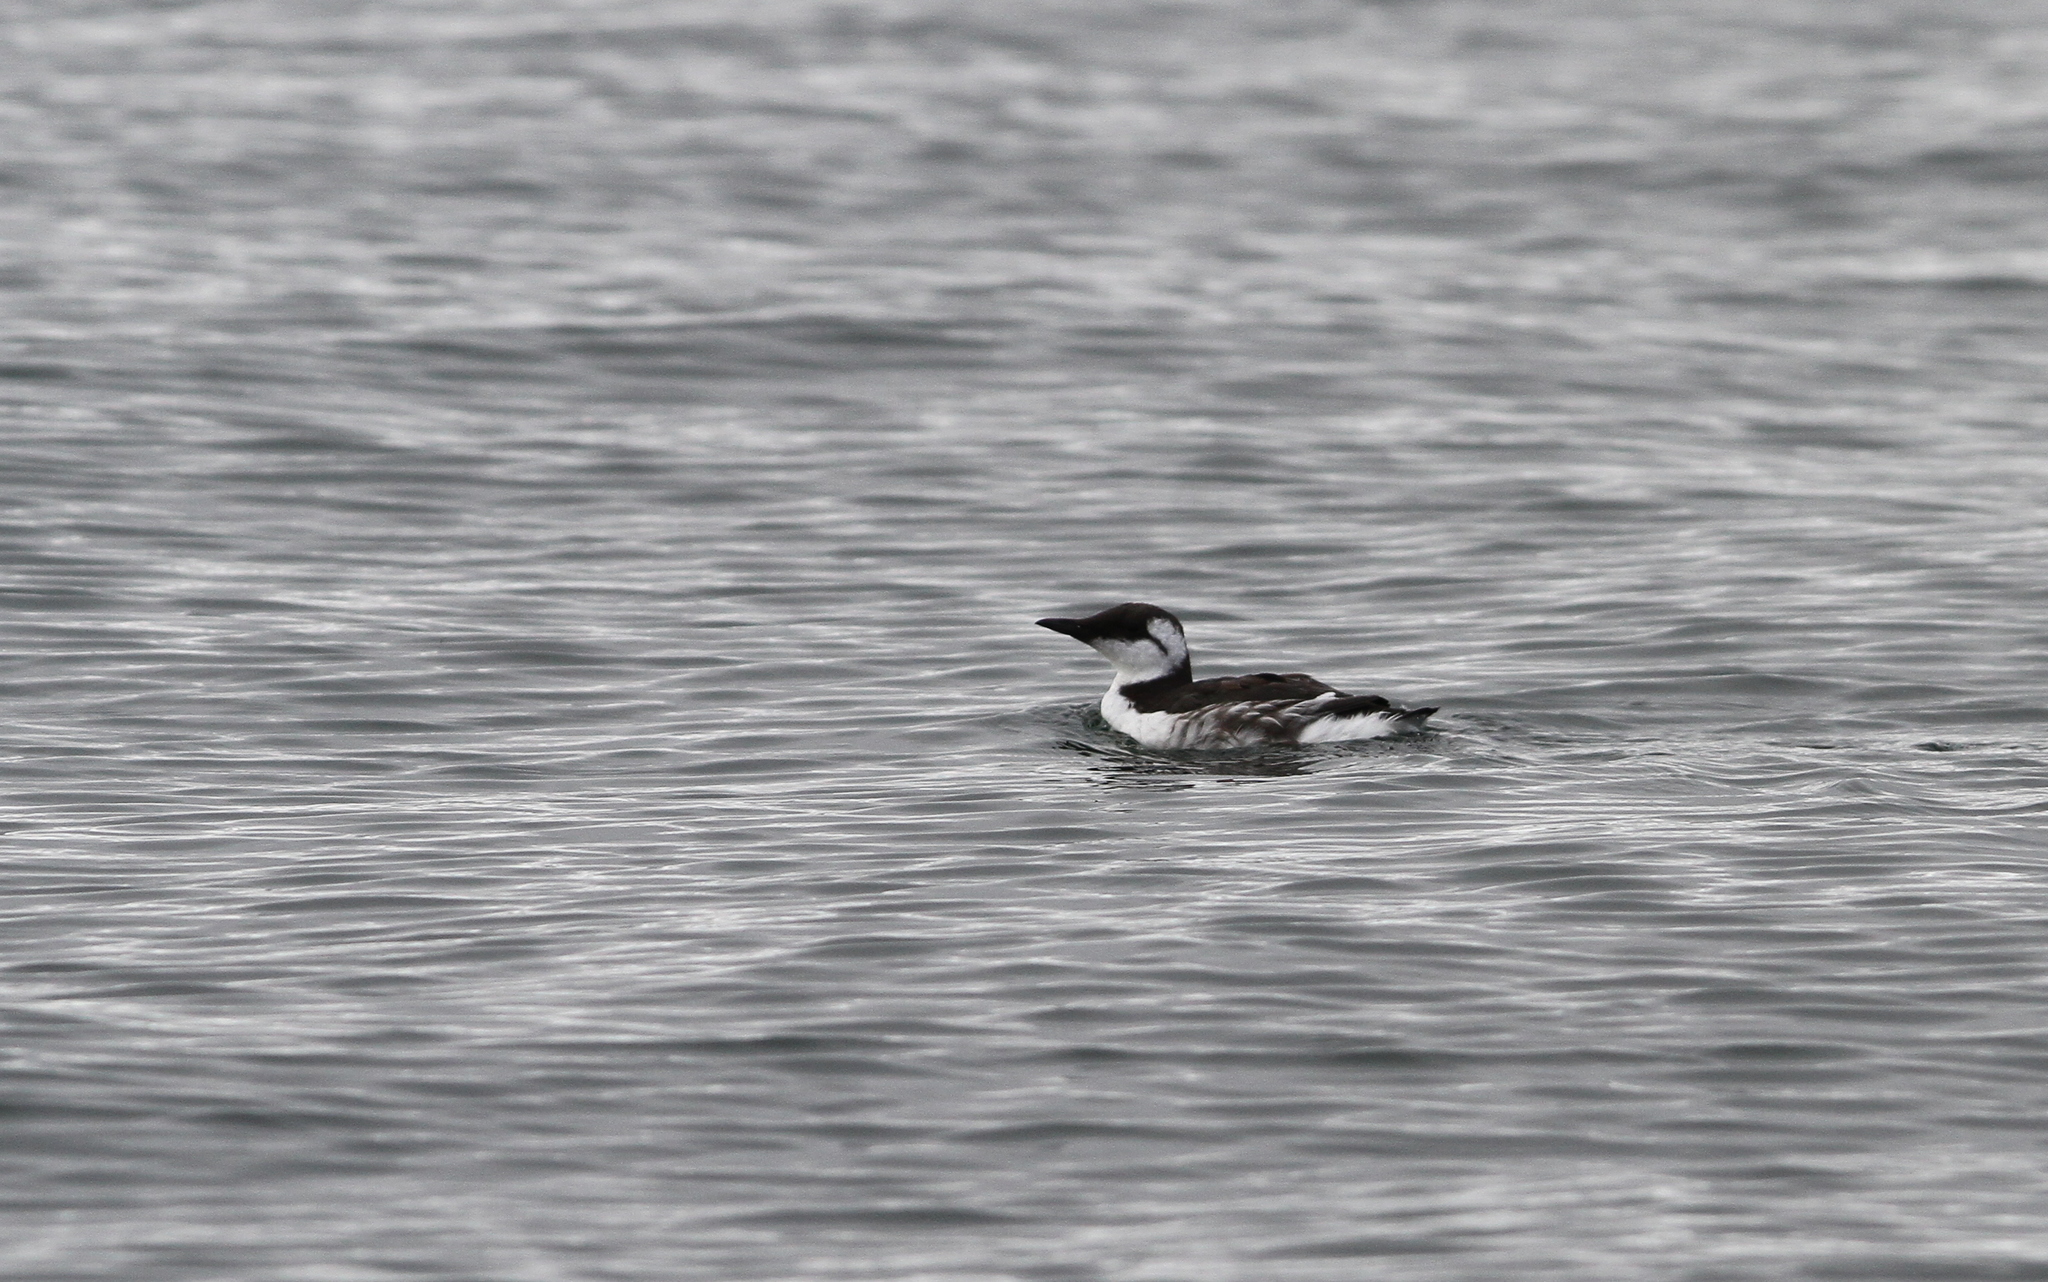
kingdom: Animalia
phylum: Chordata
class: Aves
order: Charadriiformes
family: Alcidae
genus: Uria
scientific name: Uria aalge
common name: Common murre
